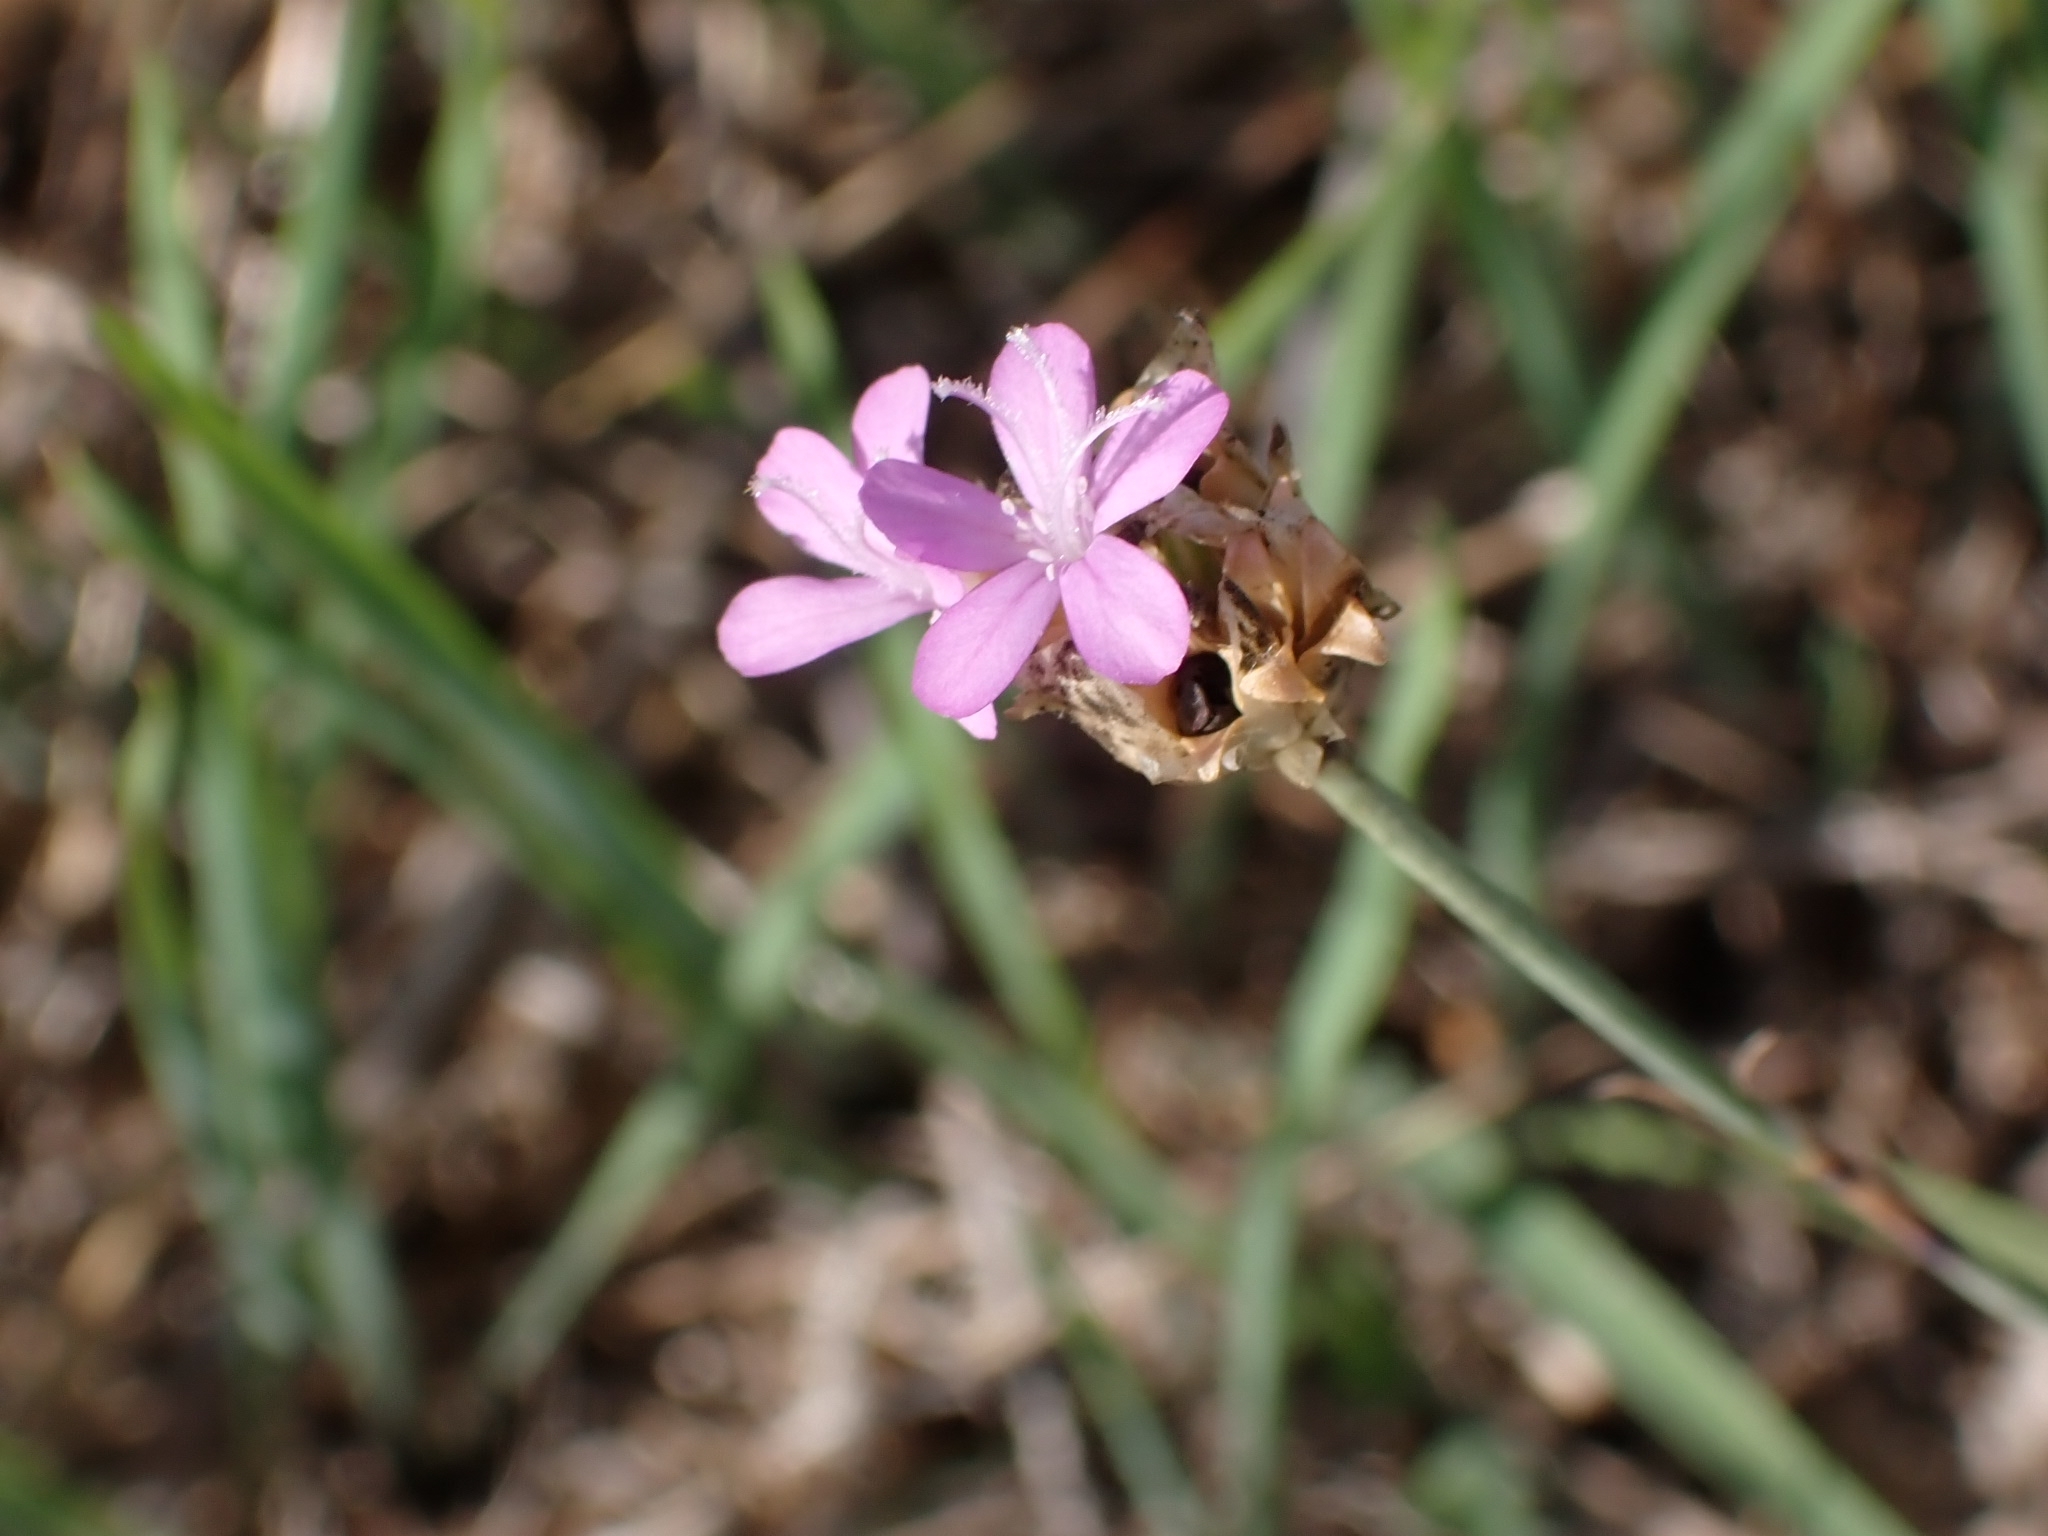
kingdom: Plantae
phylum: Tracheophyta
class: Magnoliopsida
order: Caryophyllales
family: Caryophyllaceae
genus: Petrorhagia
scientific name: Petrorhagia prolifera
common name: Proliferous pink
